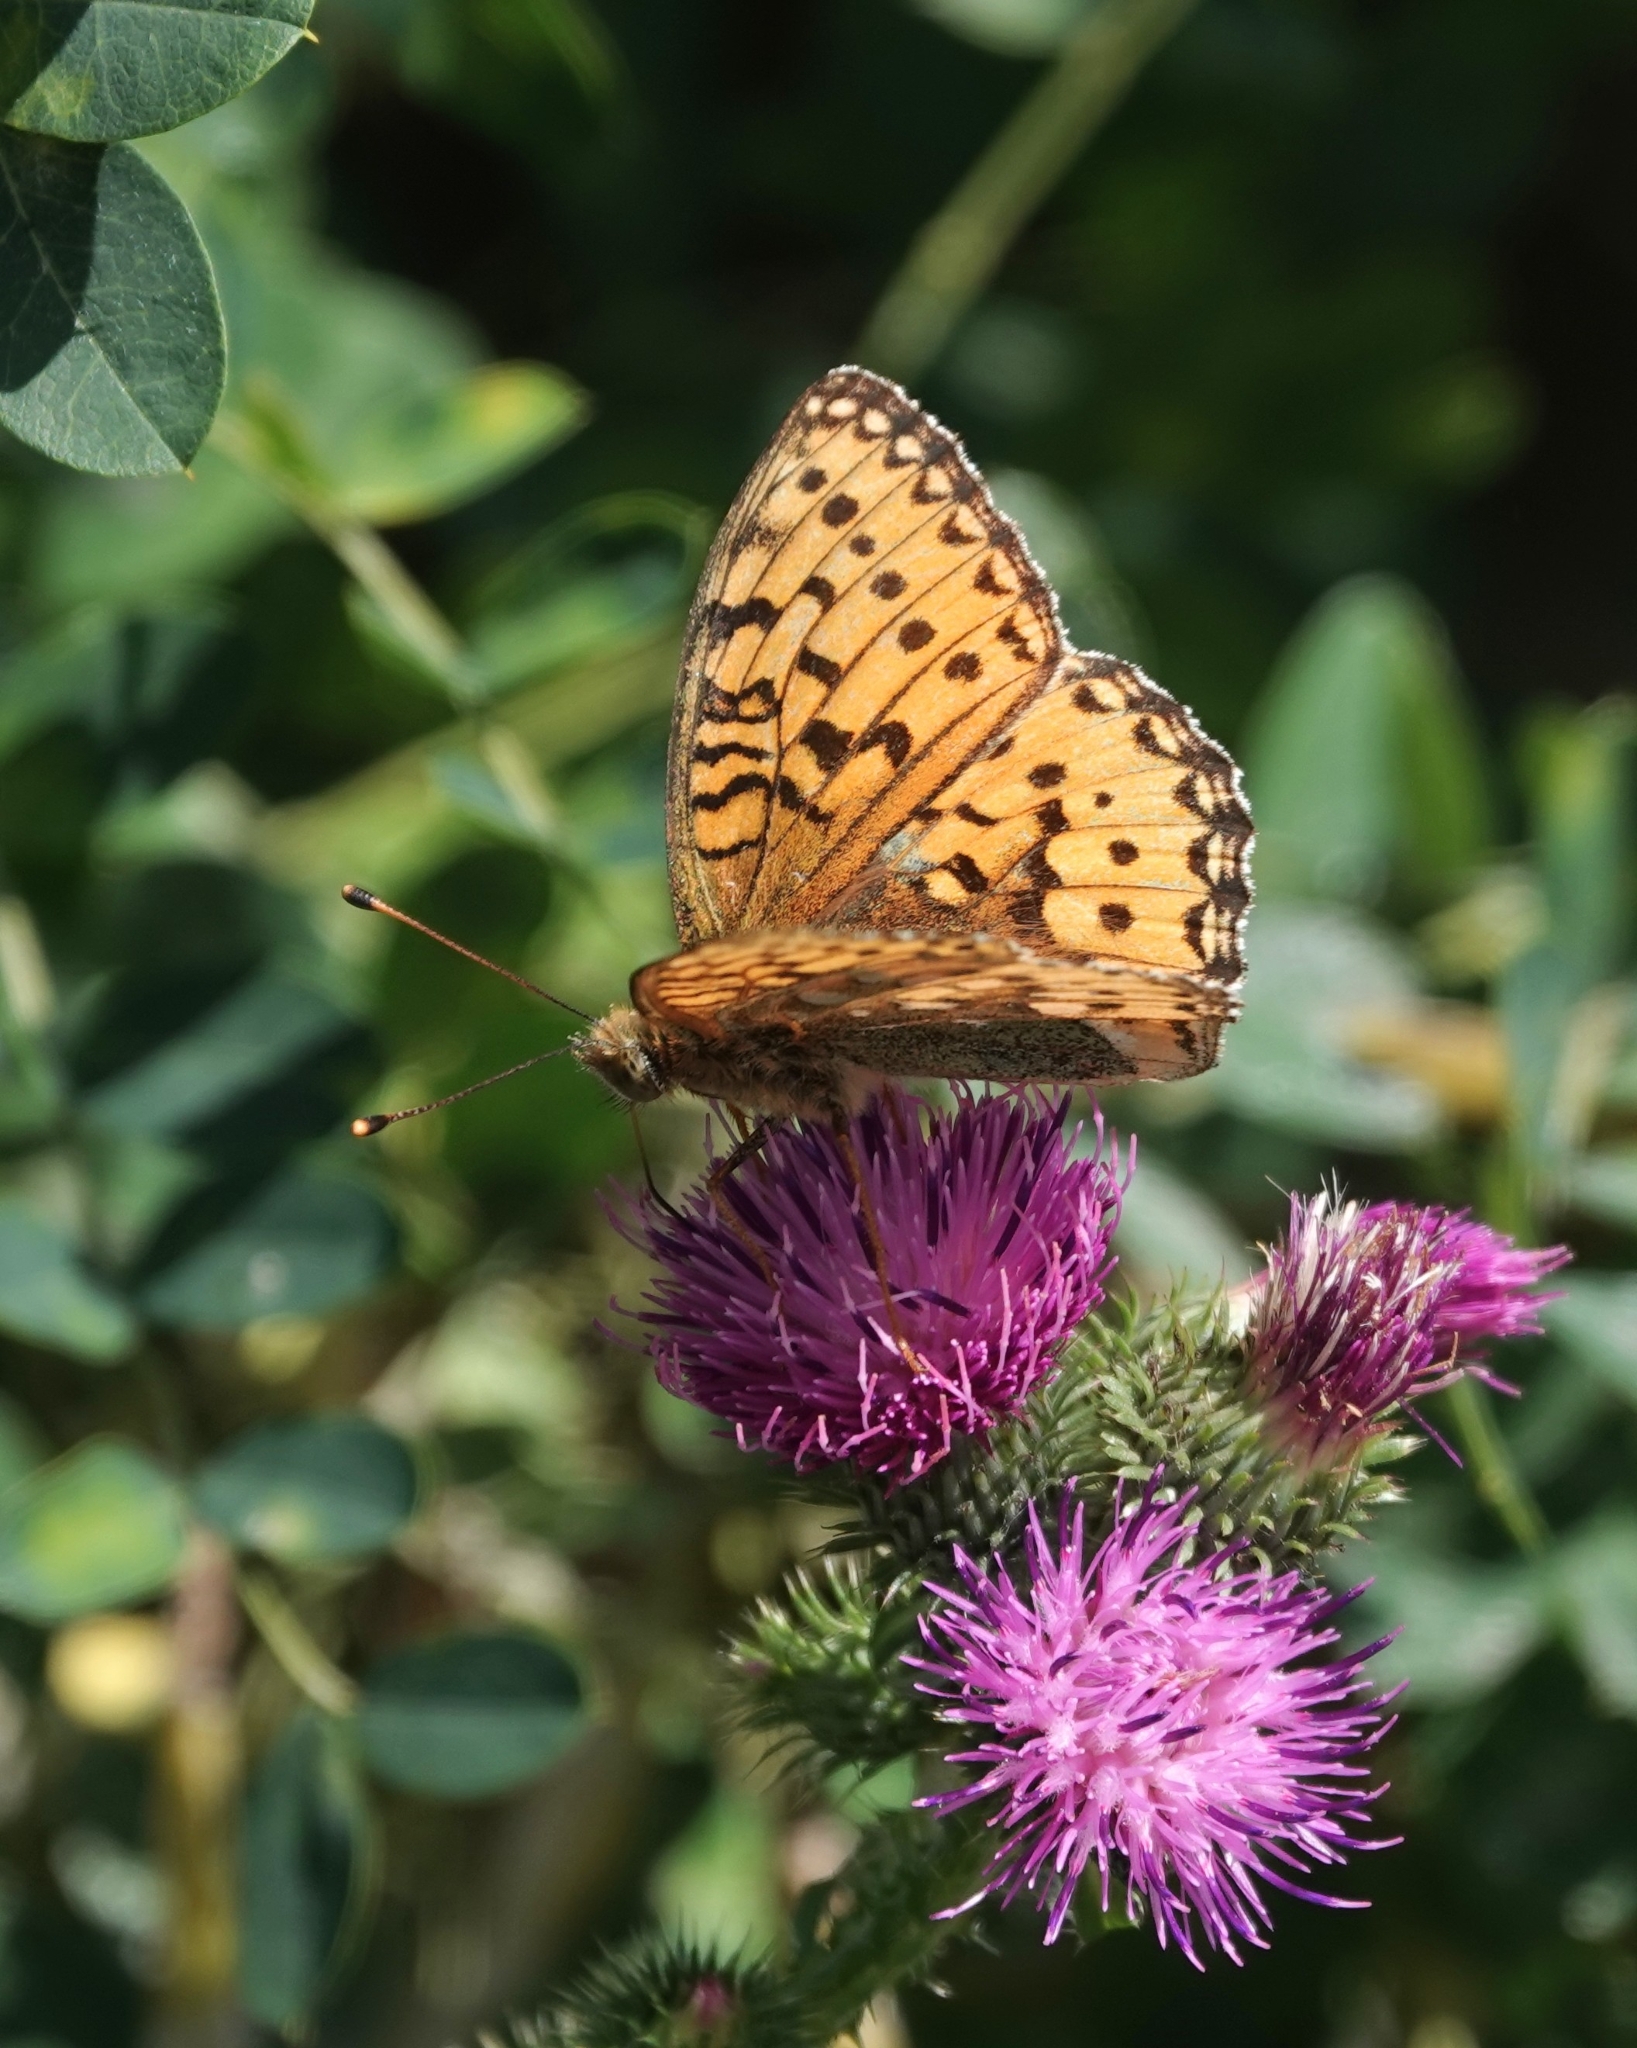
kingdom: Animalia
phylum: Arthropoda
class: Insecta
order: Lepidoptera
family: Nymphalidae
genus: Speyeria
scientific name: Speyeria aglaja
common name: Dark green fritillary
